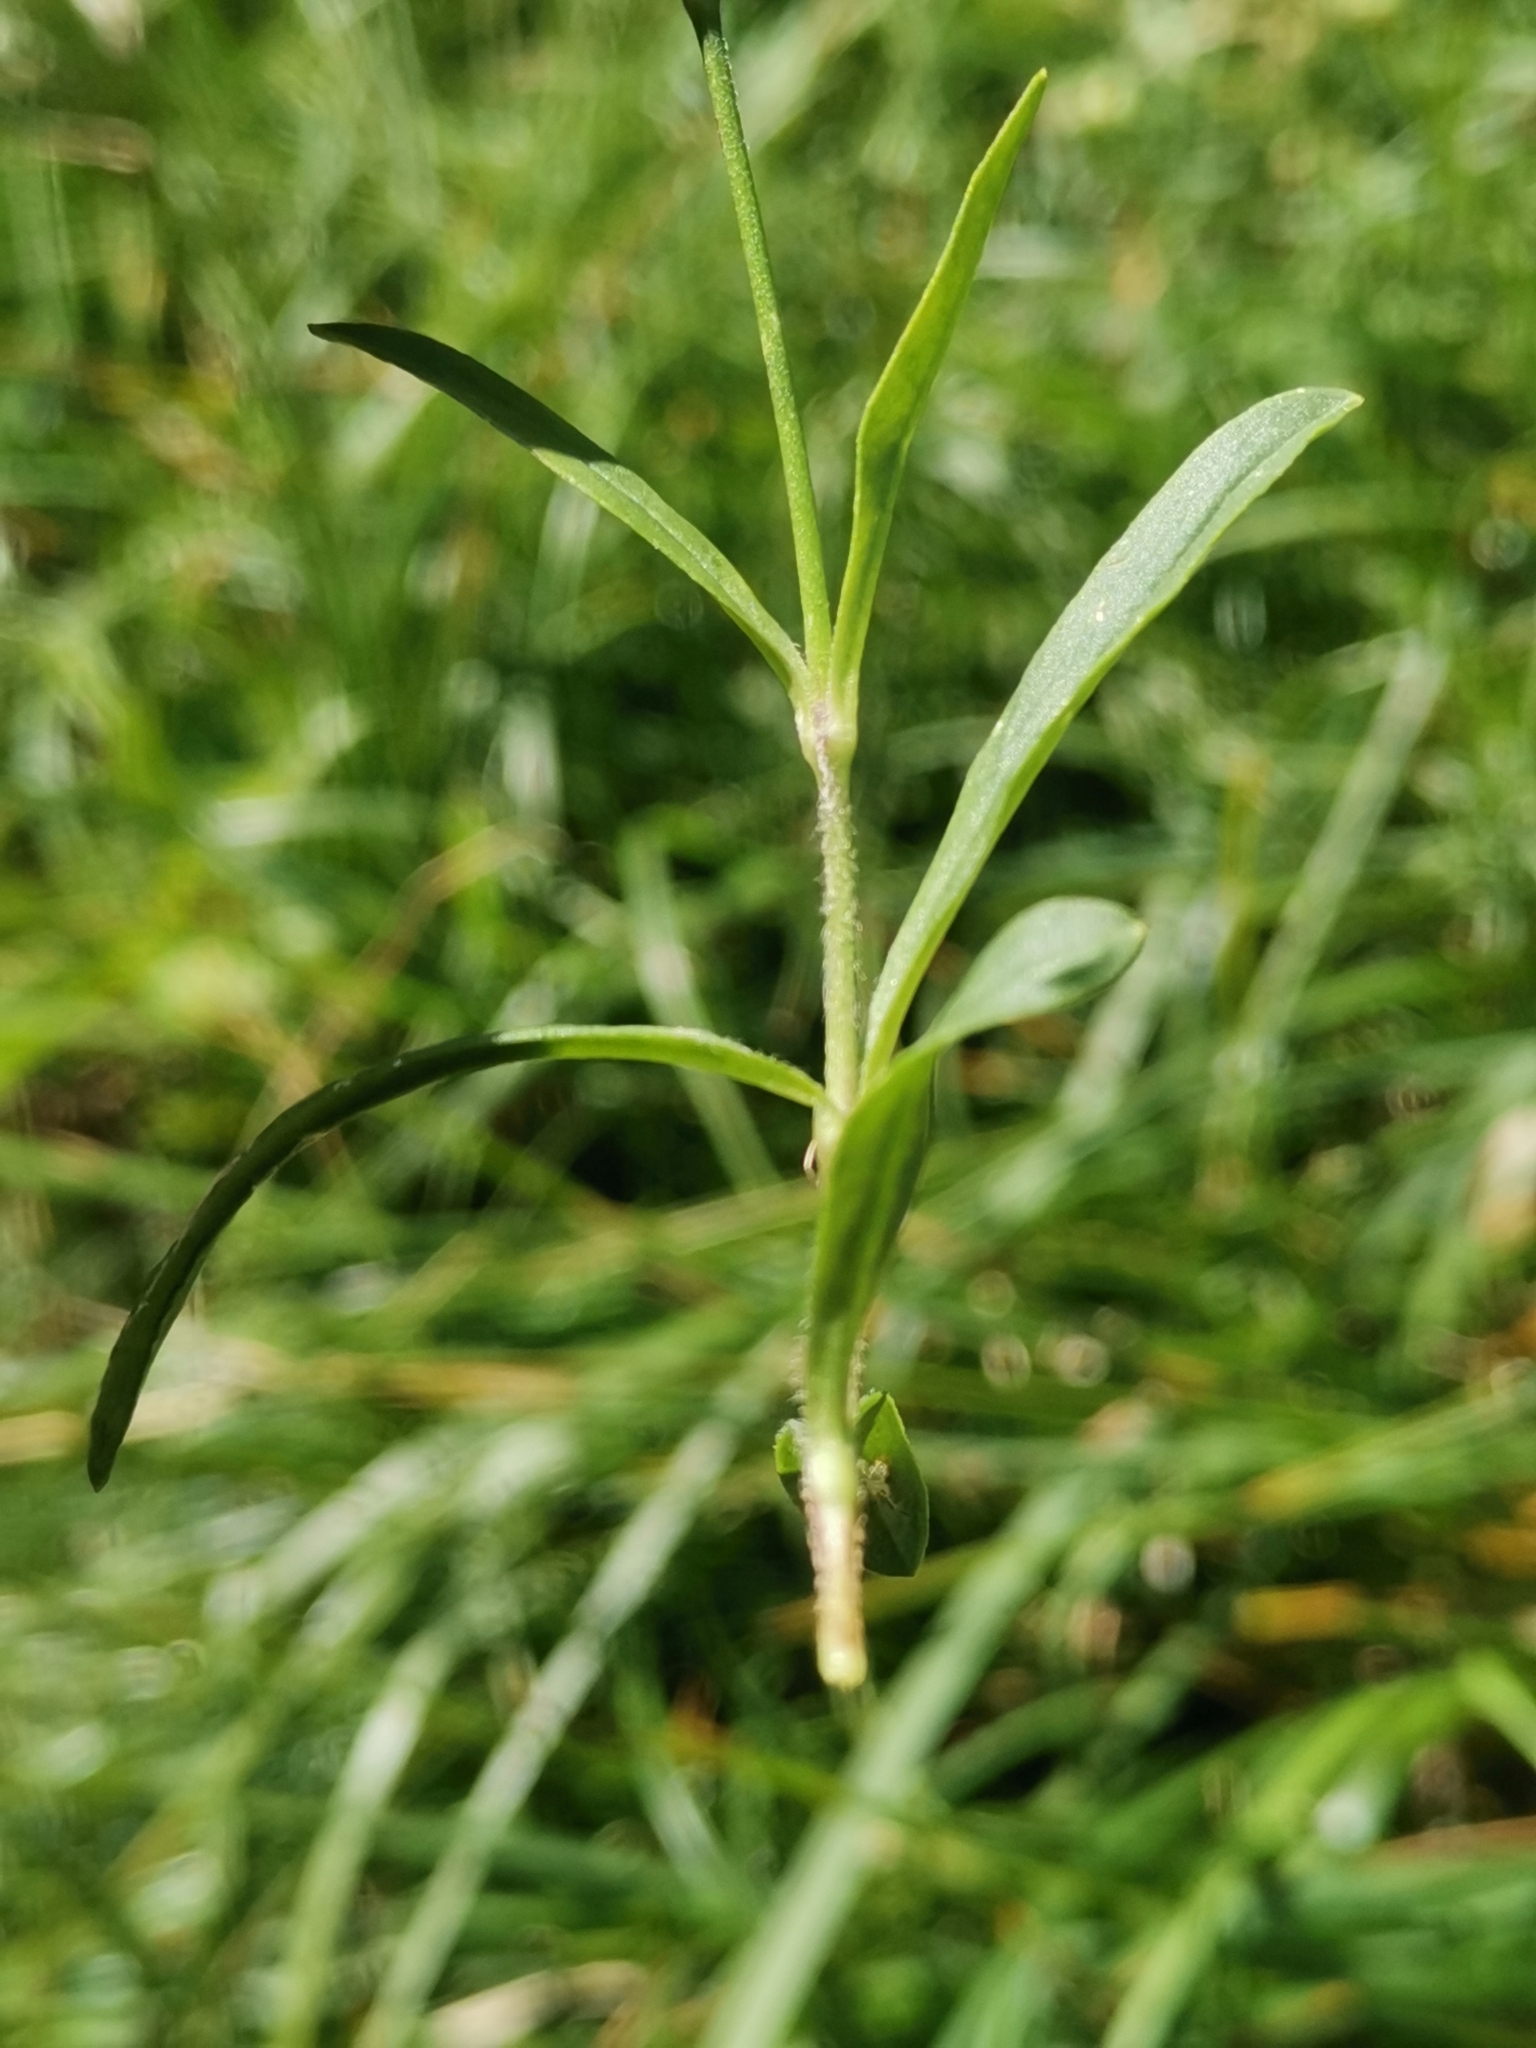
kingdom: Plantae
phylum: Tracheophyta
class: Magnoliopsida
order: Caryophyllales
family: Caryophyllaceae
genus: Heliosperma
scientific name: Heliosperma alpestre
